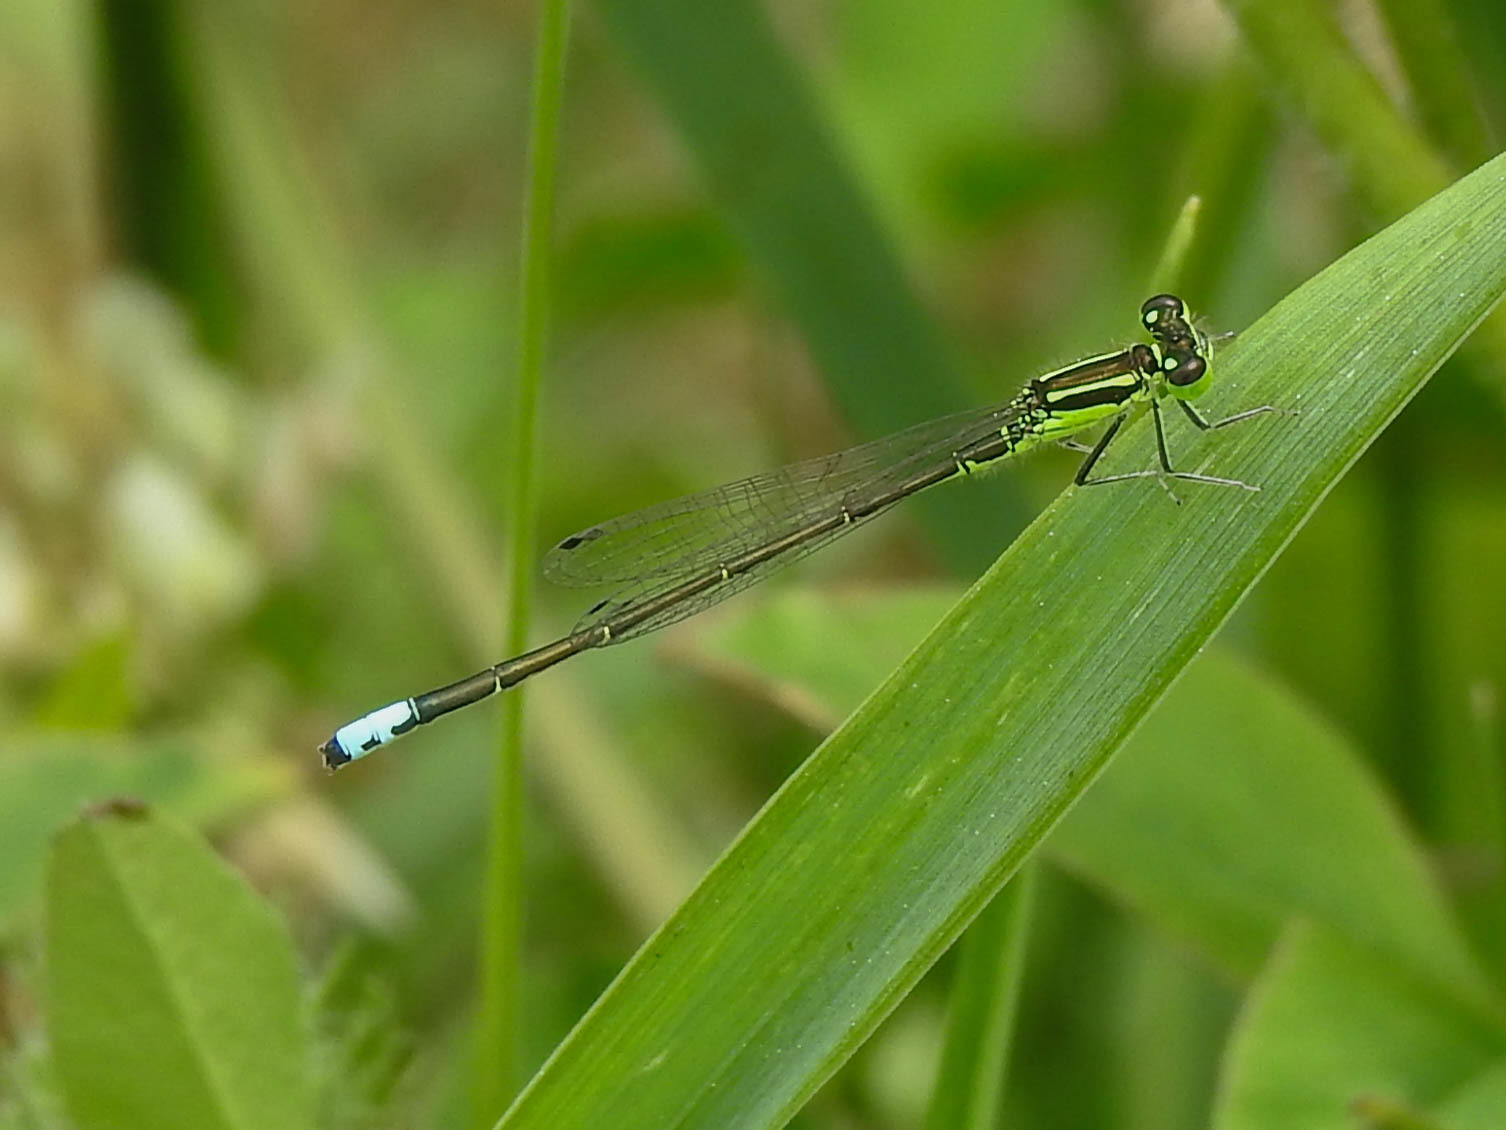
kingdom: Animalia
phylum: Arthropoda
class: Insecta
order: Odonata
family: Coenagrionidae
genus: Ischnura
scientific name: Ischnura verticalis
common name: Eastern forktail
